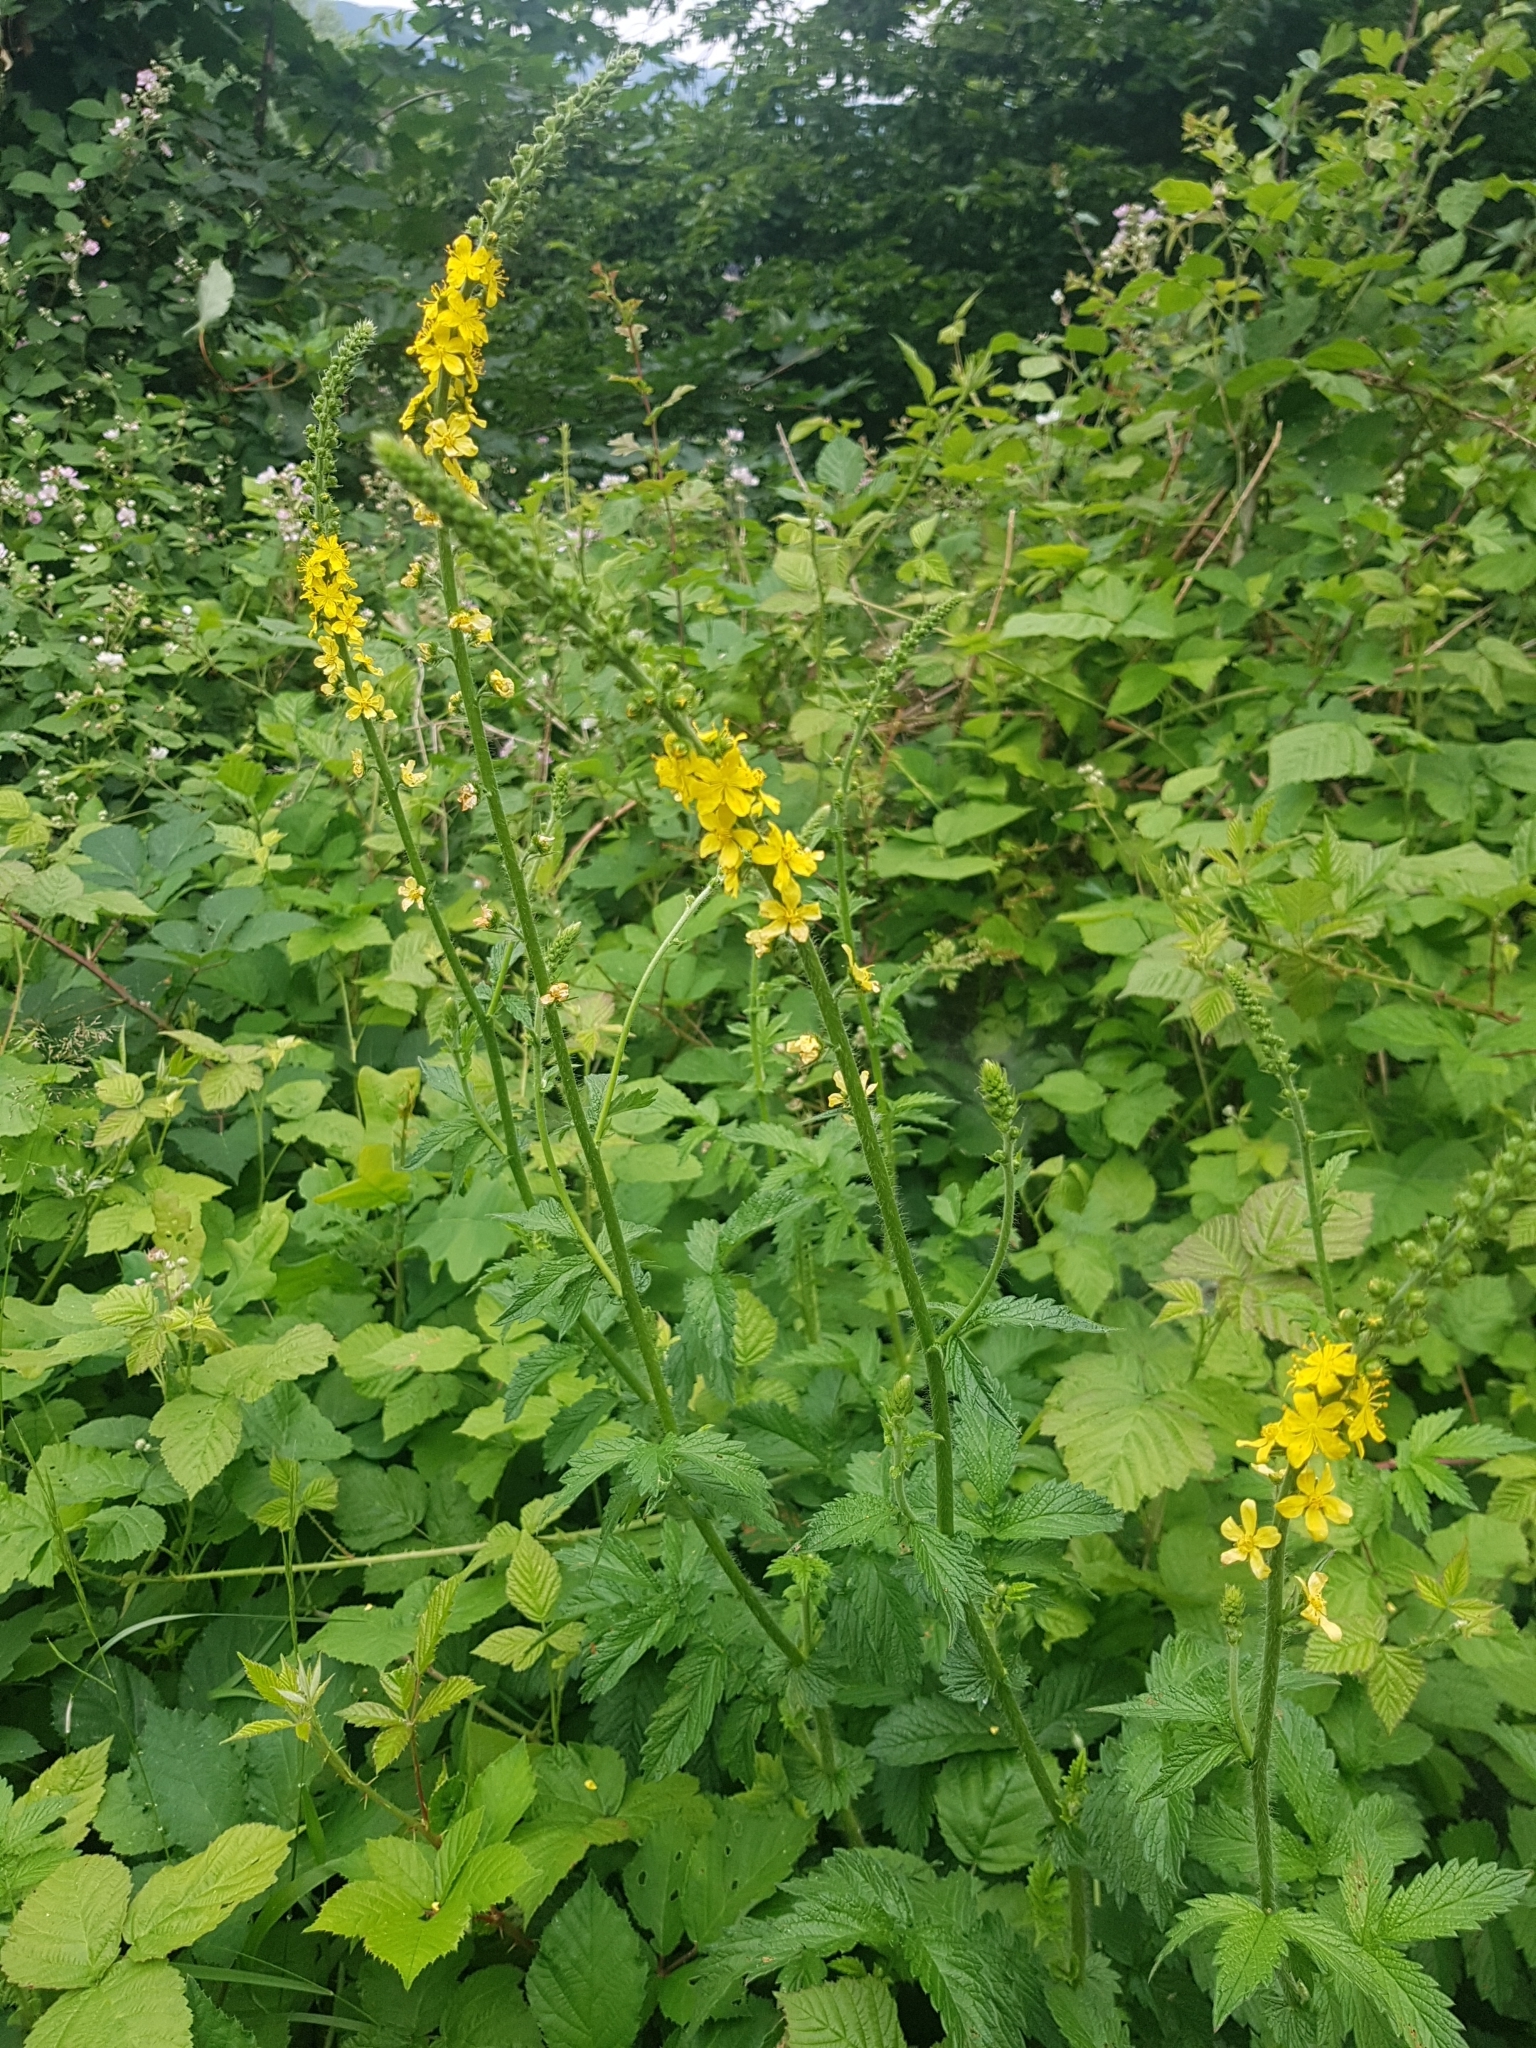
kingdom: Plantae
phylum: Tracheophyta
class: Magnoliopsida
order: Rosales
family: Rosaceae
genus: Agrimonia
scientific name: Agrimonia eupatoria
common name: Agrimony
